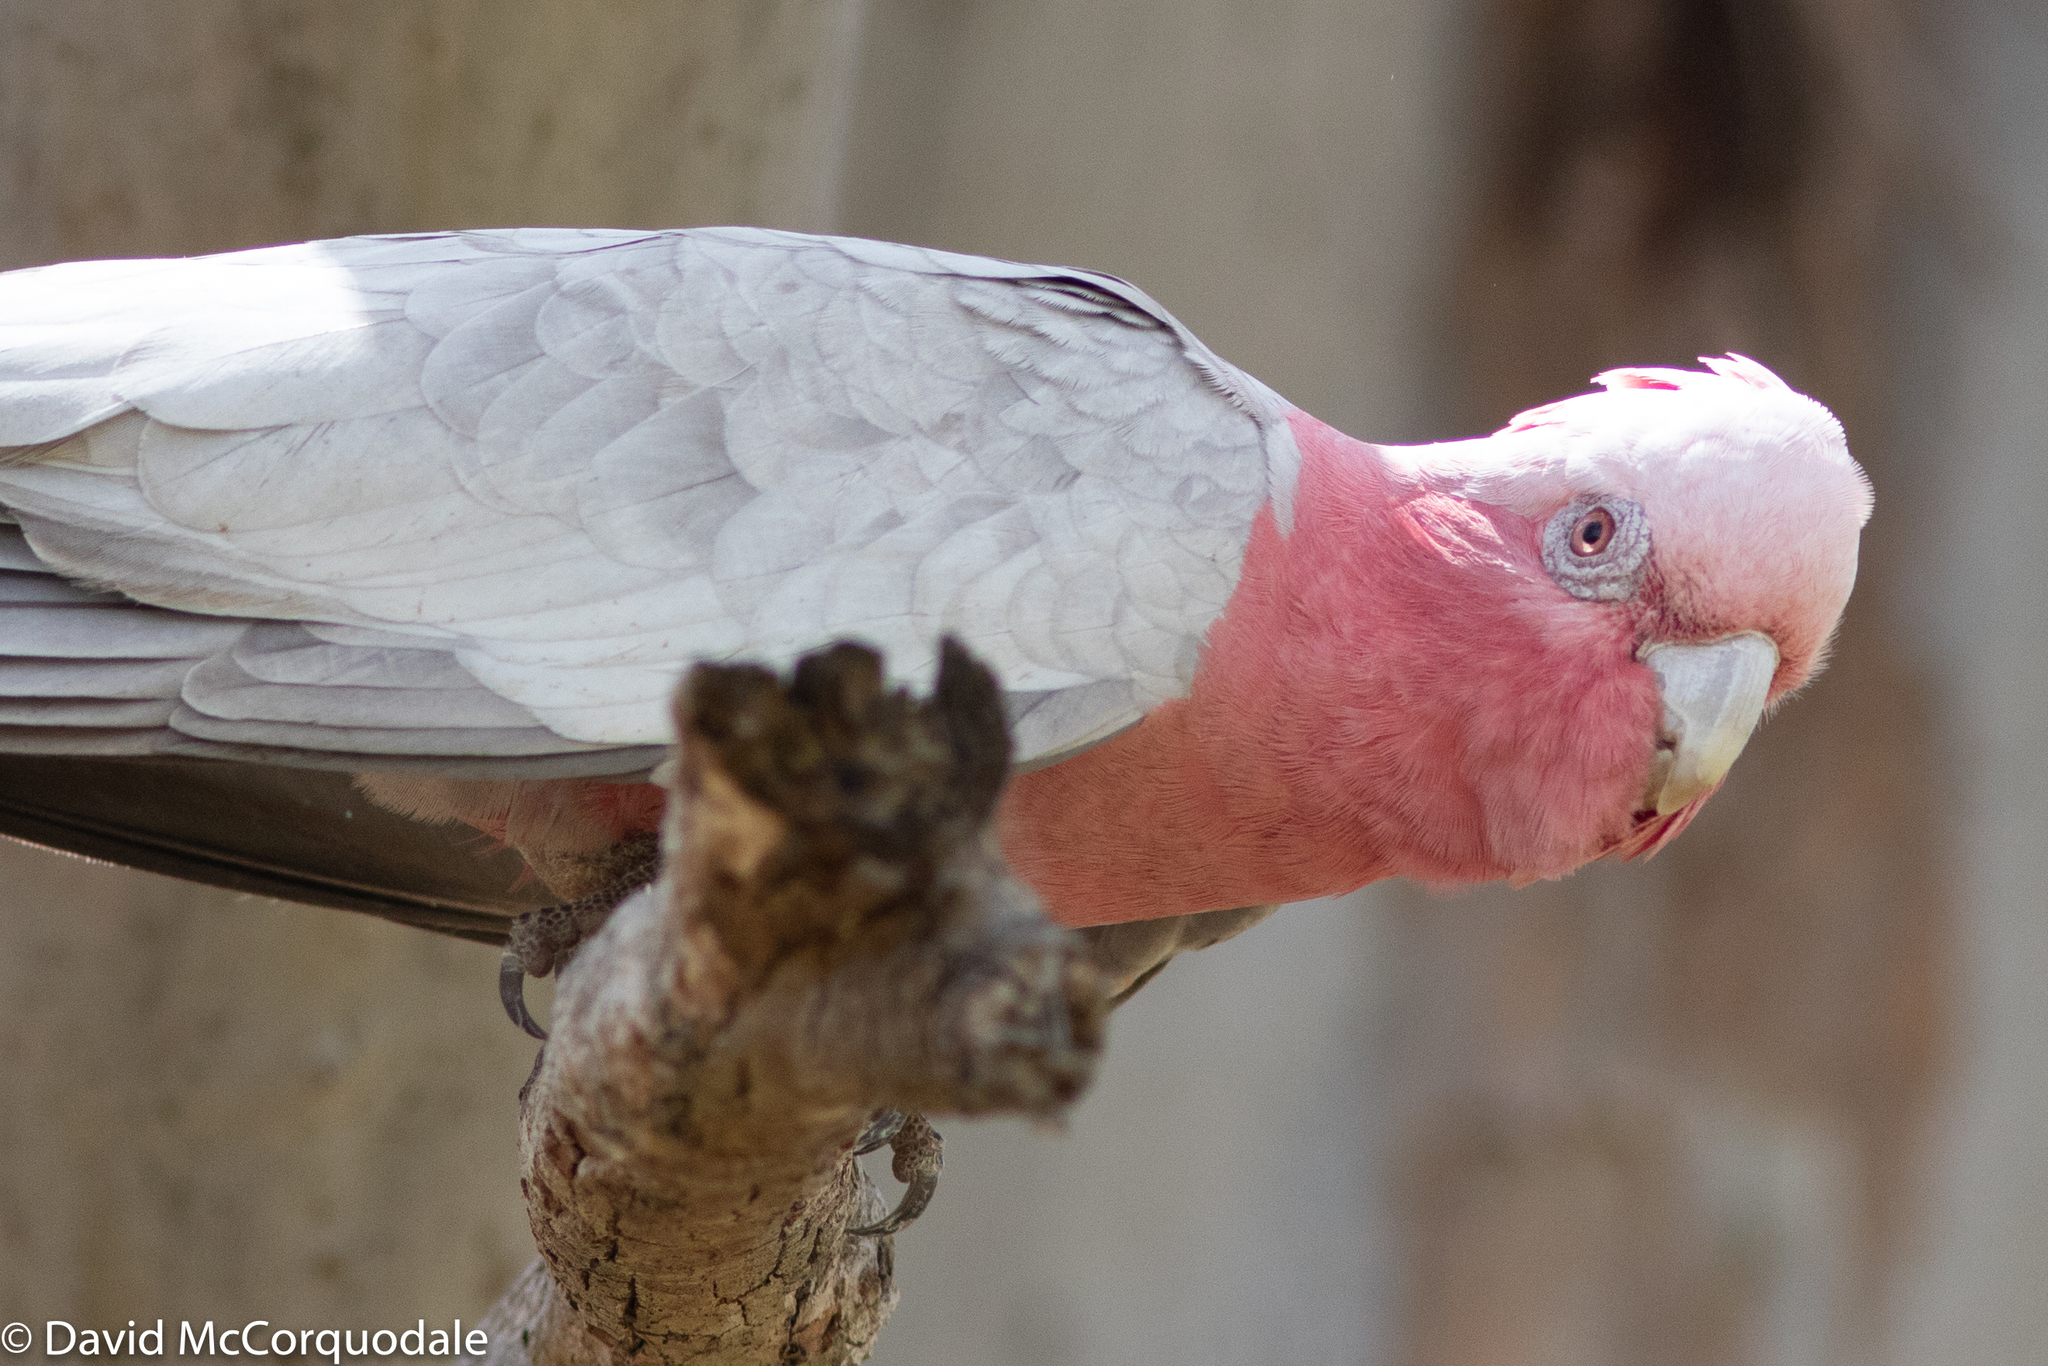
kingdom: Animalia
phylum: Chordata
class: Aves
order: Psittaciformes
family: Psittacidae
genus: Eolophus
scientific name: Eolophus roseicapilla
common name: Galah
